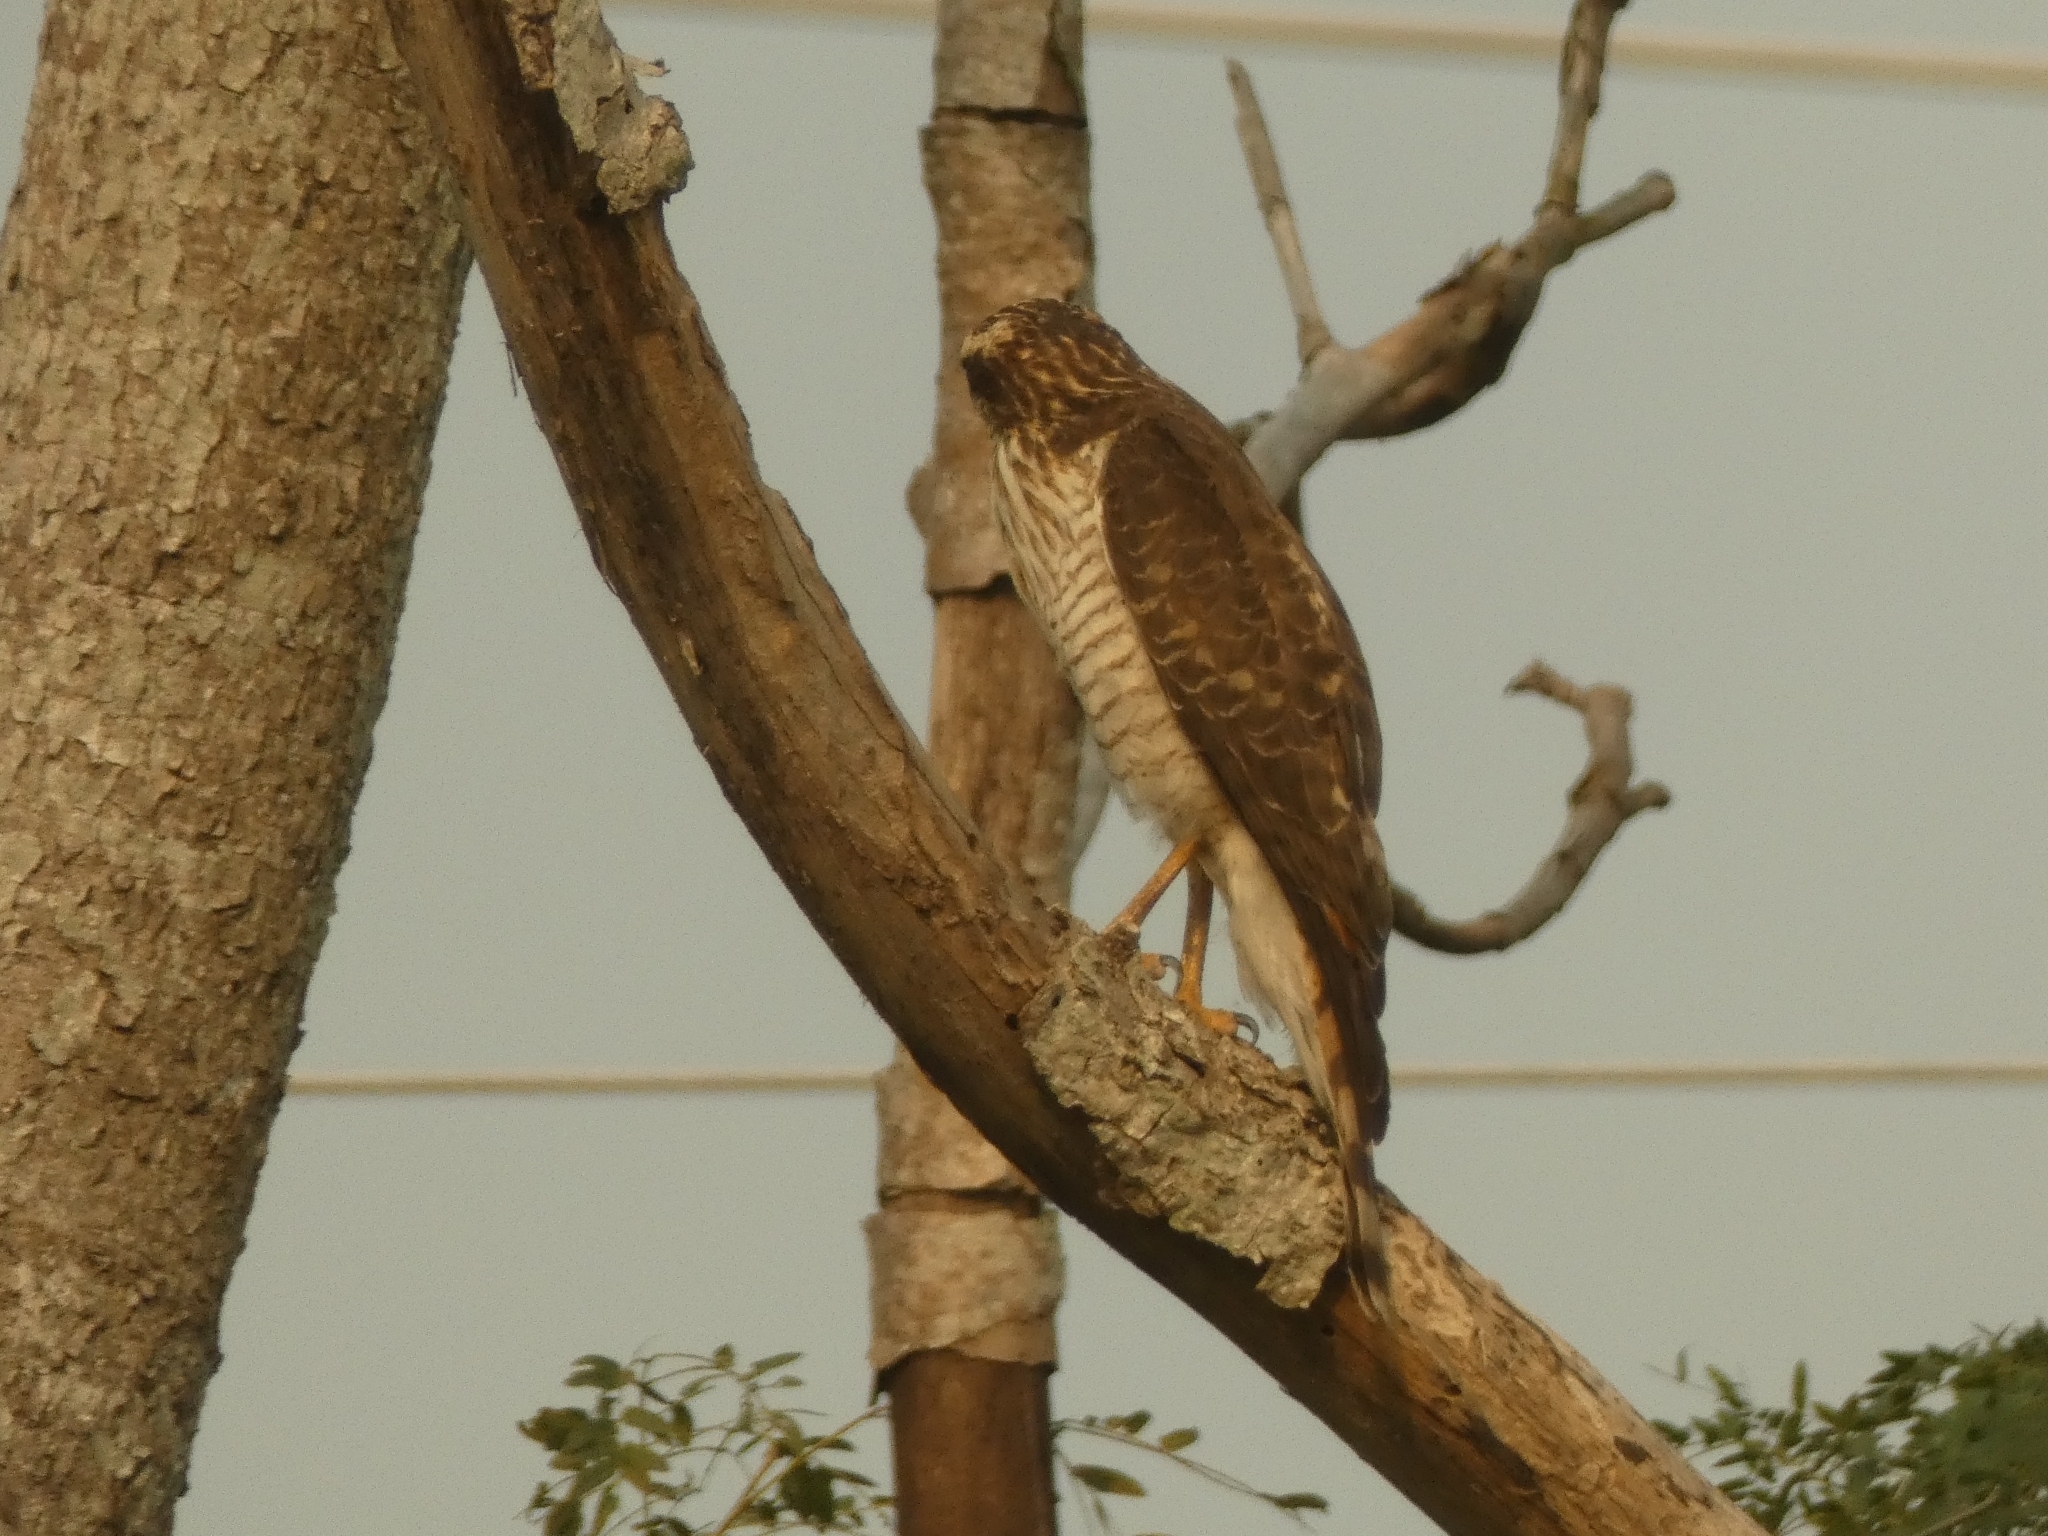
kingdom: Animalia
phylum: Chordata
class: Aves
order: Accipitriformes
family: Accipitridae
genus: Rupornis
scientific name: Rupornis magnirostris
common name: Roadside hawk
